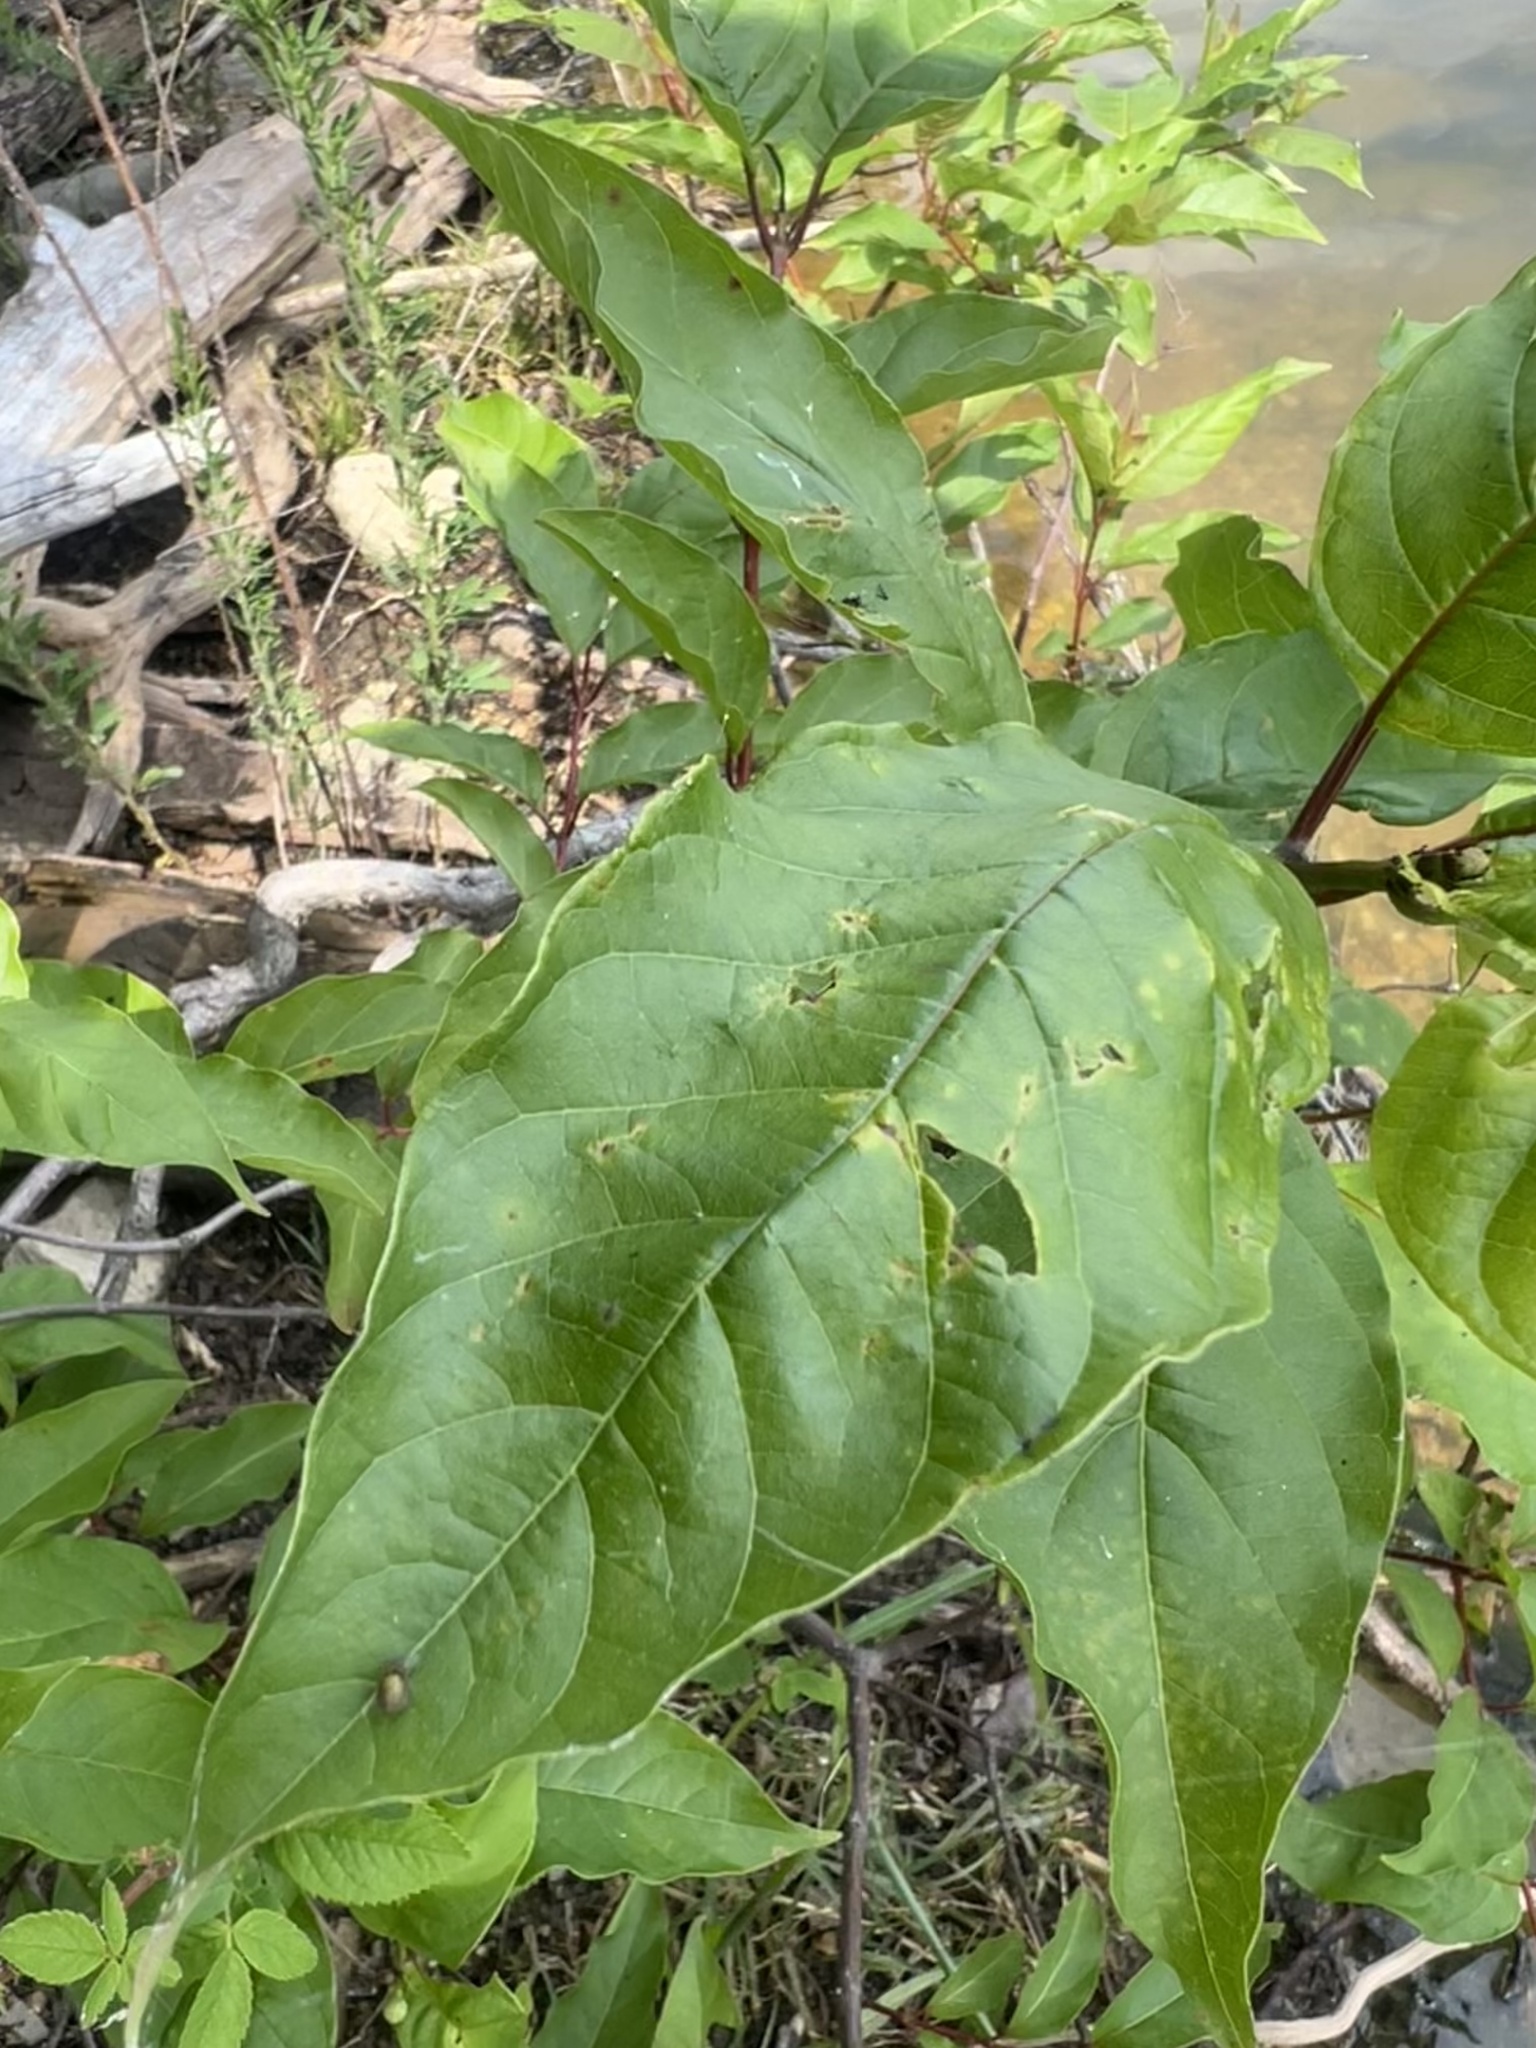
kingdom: Plantae
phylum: Tracheophyta
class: Magnoliopsida
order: Gentianales
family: Rubiaceae
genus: Cephalanthus
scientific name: Cephalanthus occidentalis
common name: Button-willow
